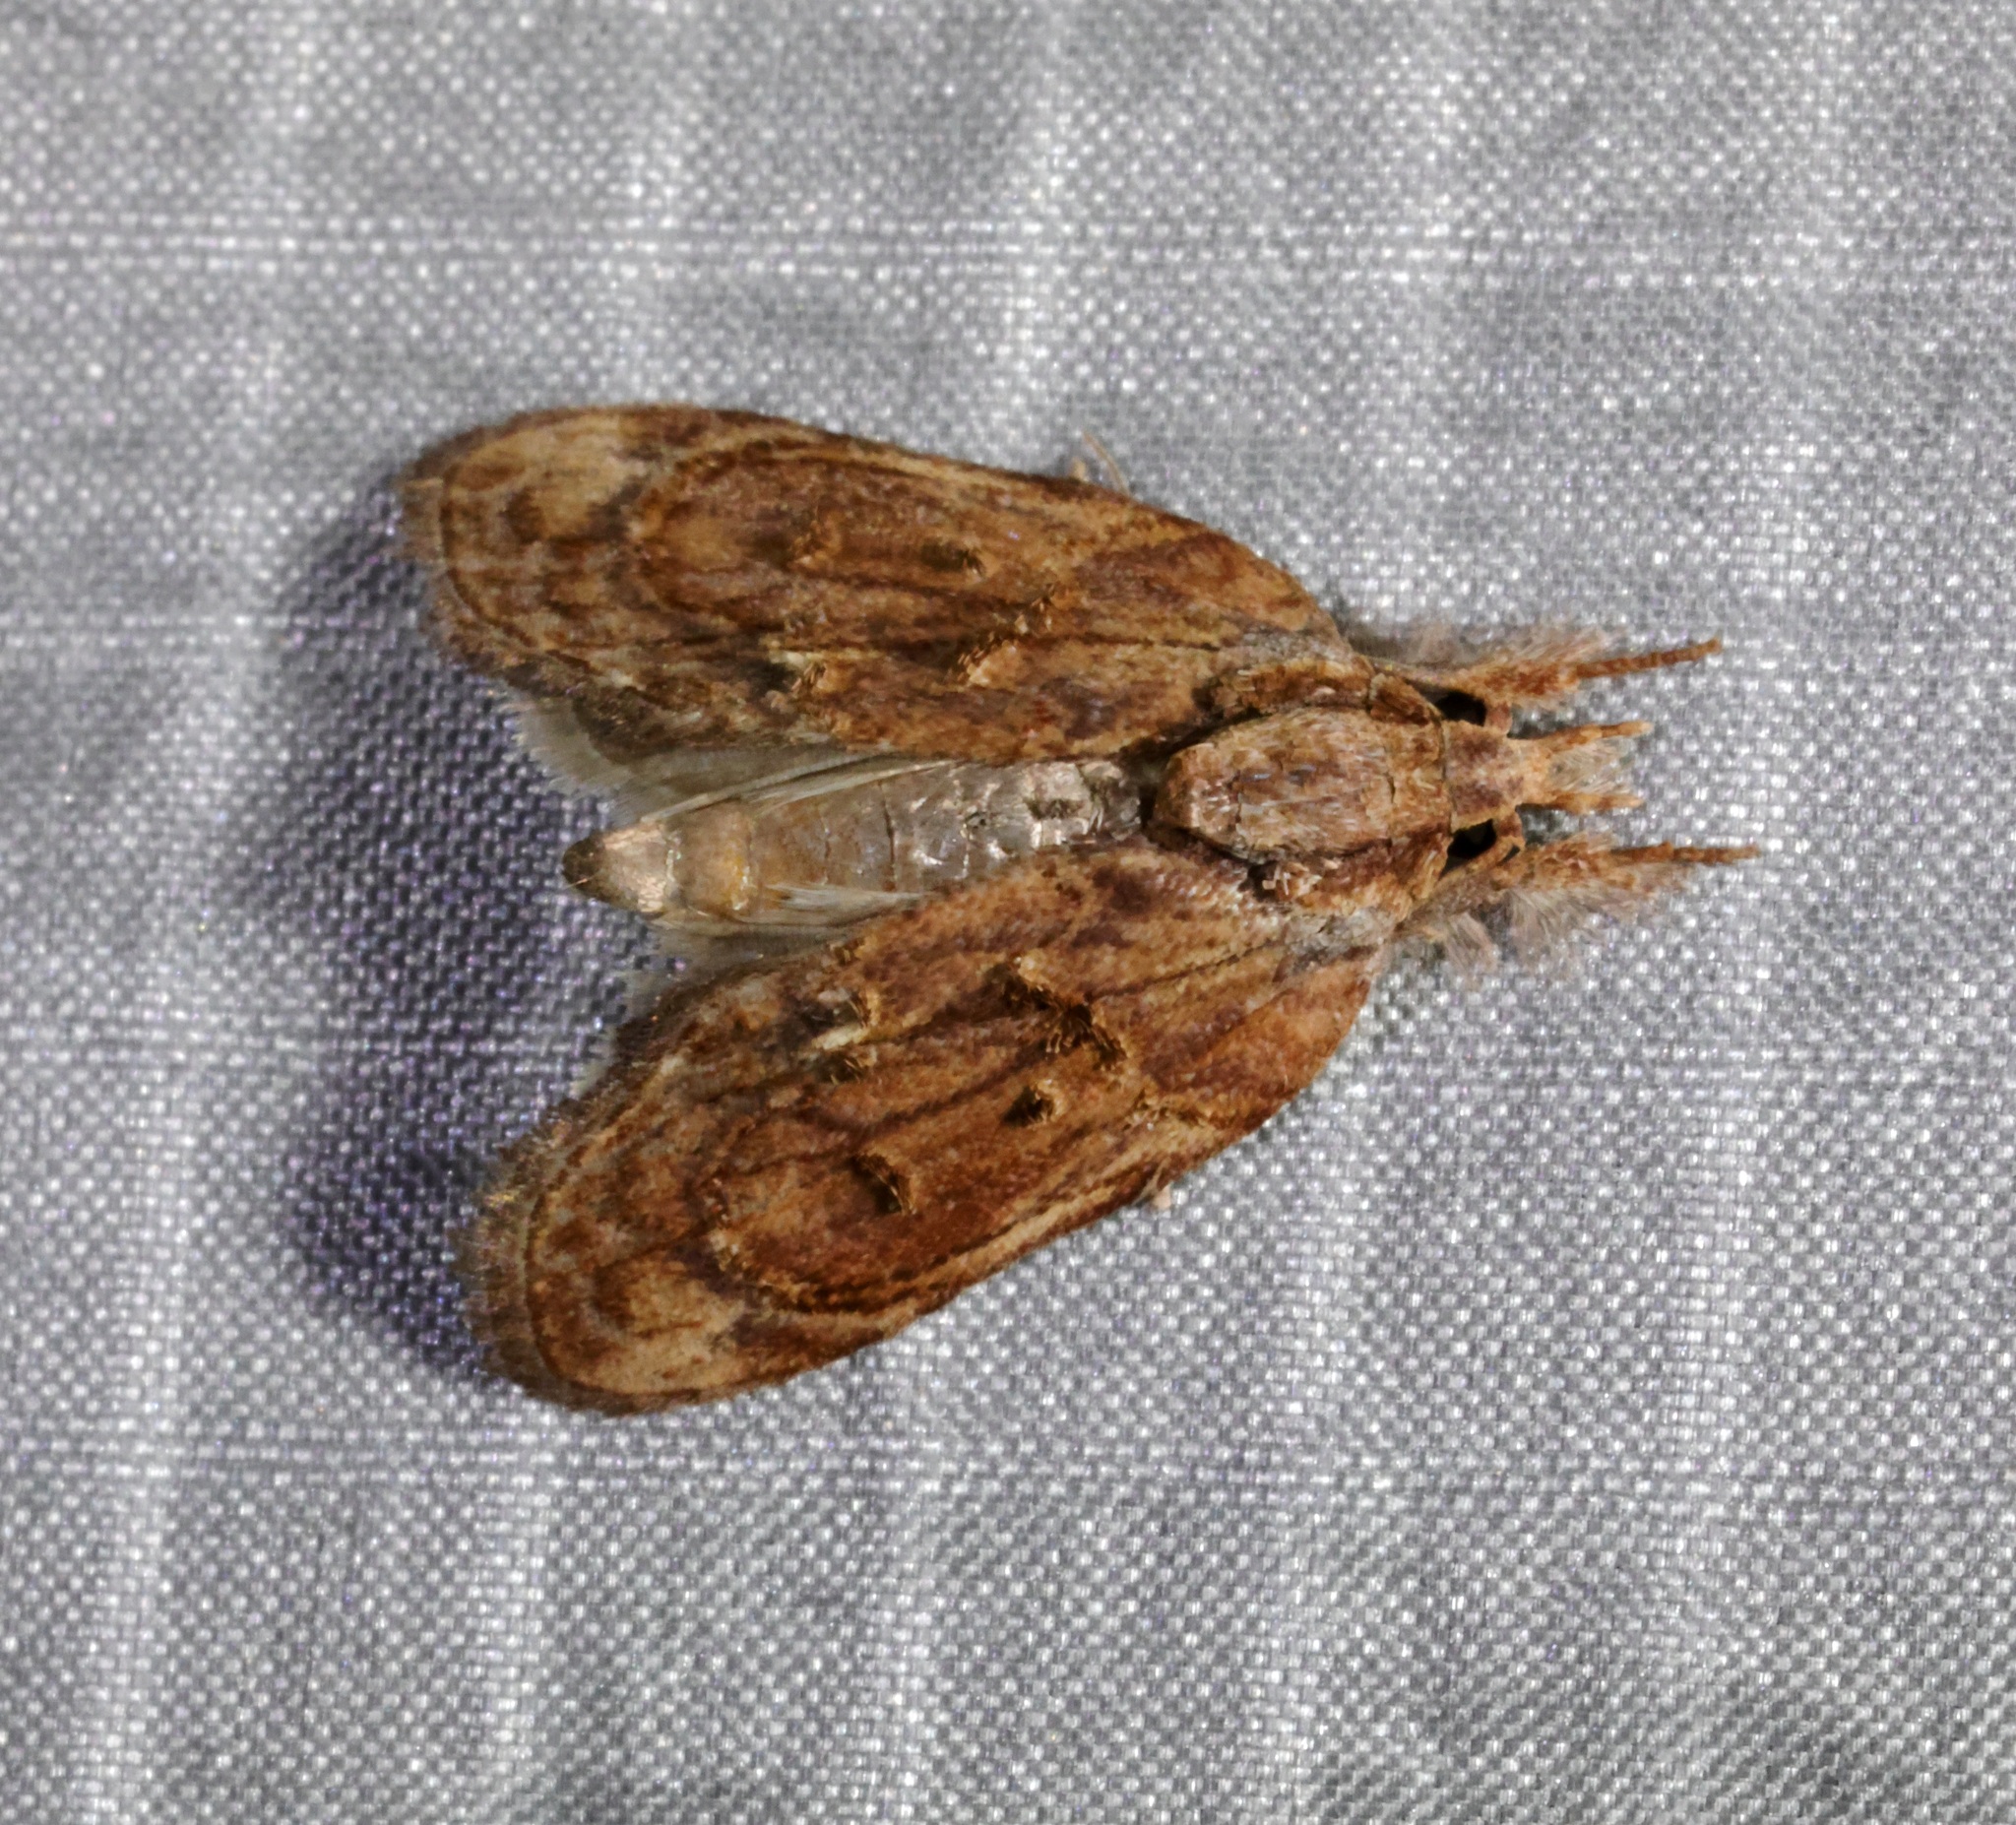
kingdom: Animalia
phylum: Arthropoda
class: Insecta
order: Lepidoptera
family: Nolidae
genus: Selepa
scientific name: Selepa discigera
